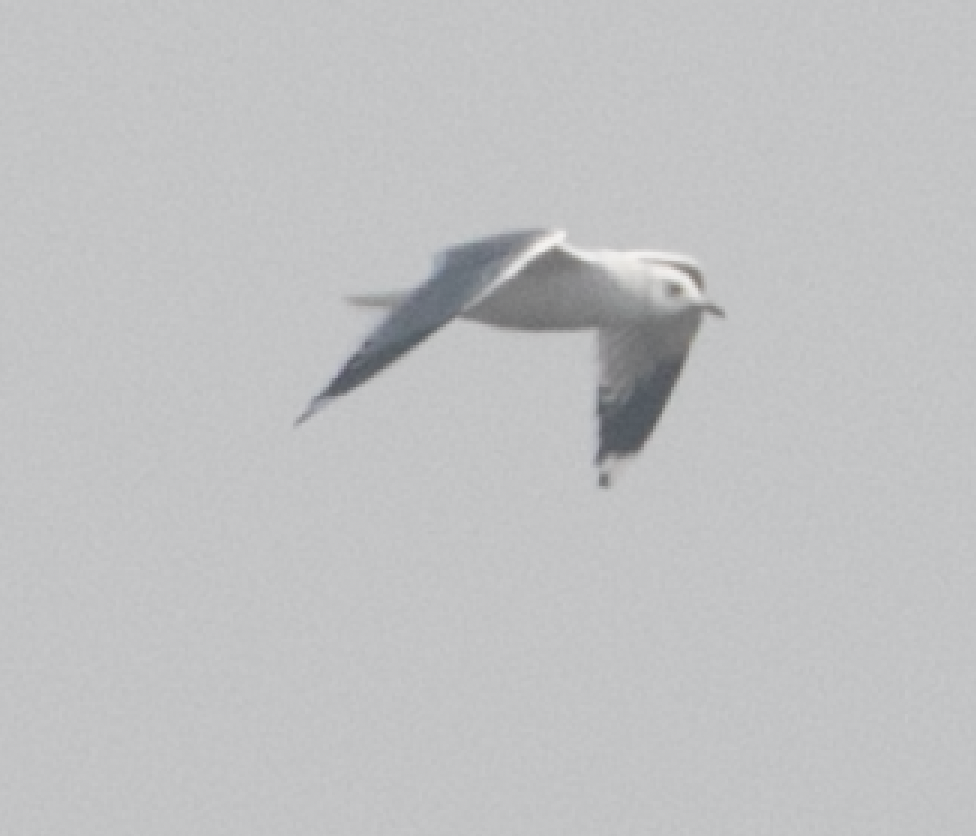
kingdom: Animalia
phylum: Chordata
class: Aves
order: Charadriiformes
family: Laridae
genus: Larus
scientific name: Larus canus
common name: Mew gull
